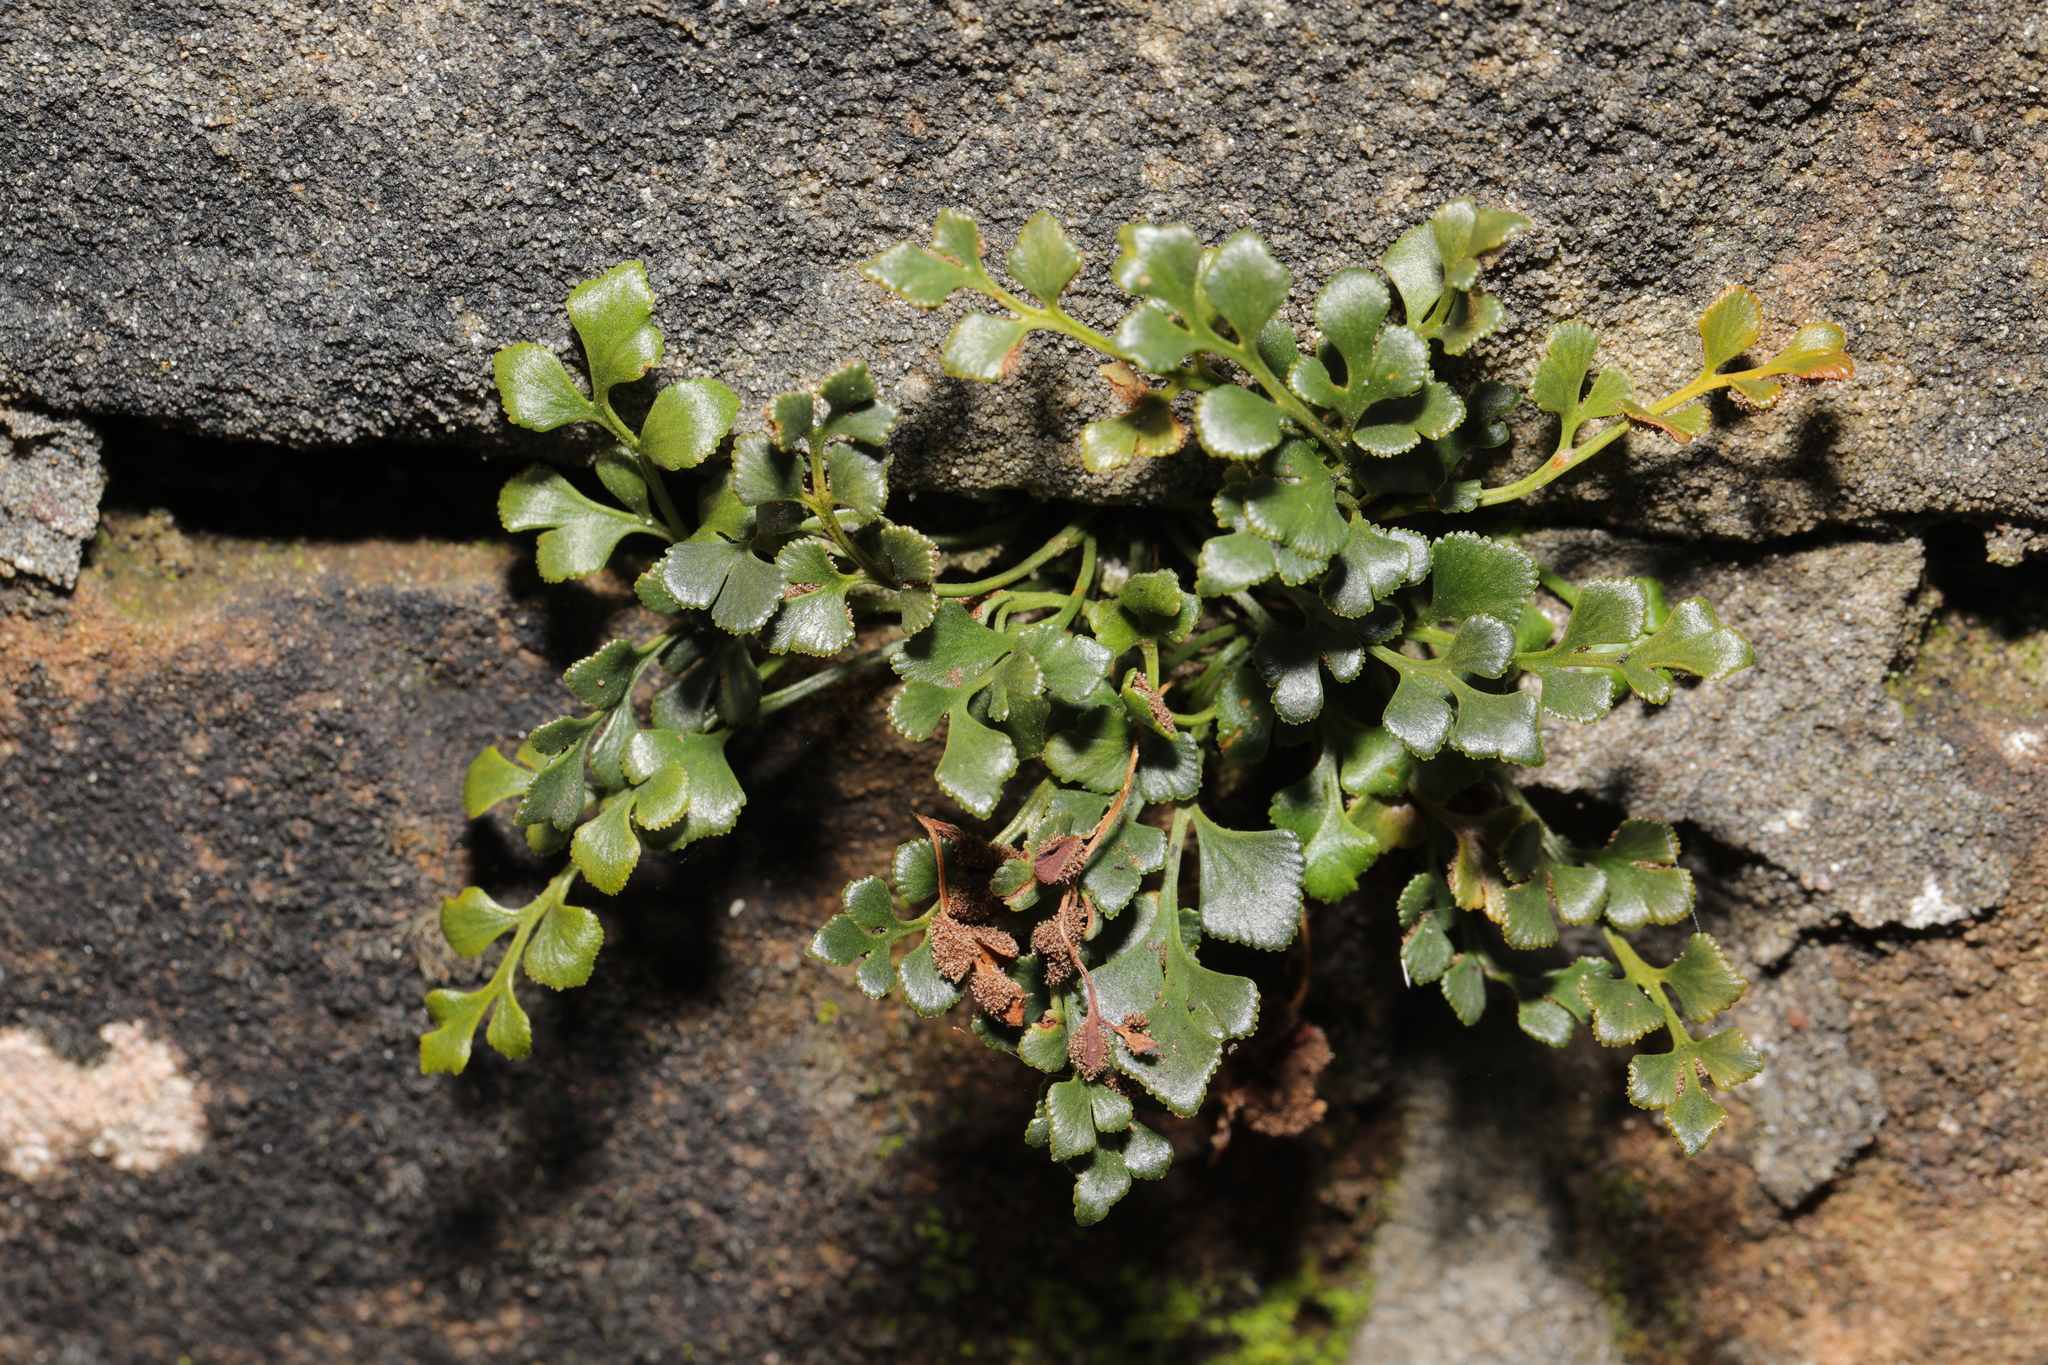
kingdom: Plantae
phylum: Tracheophyta
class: Polypodiopsida
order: Polypodiales
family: Aspleniaceae
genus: Asplenium
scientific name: Asplenium ruta-muraria
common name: Wall-rue
